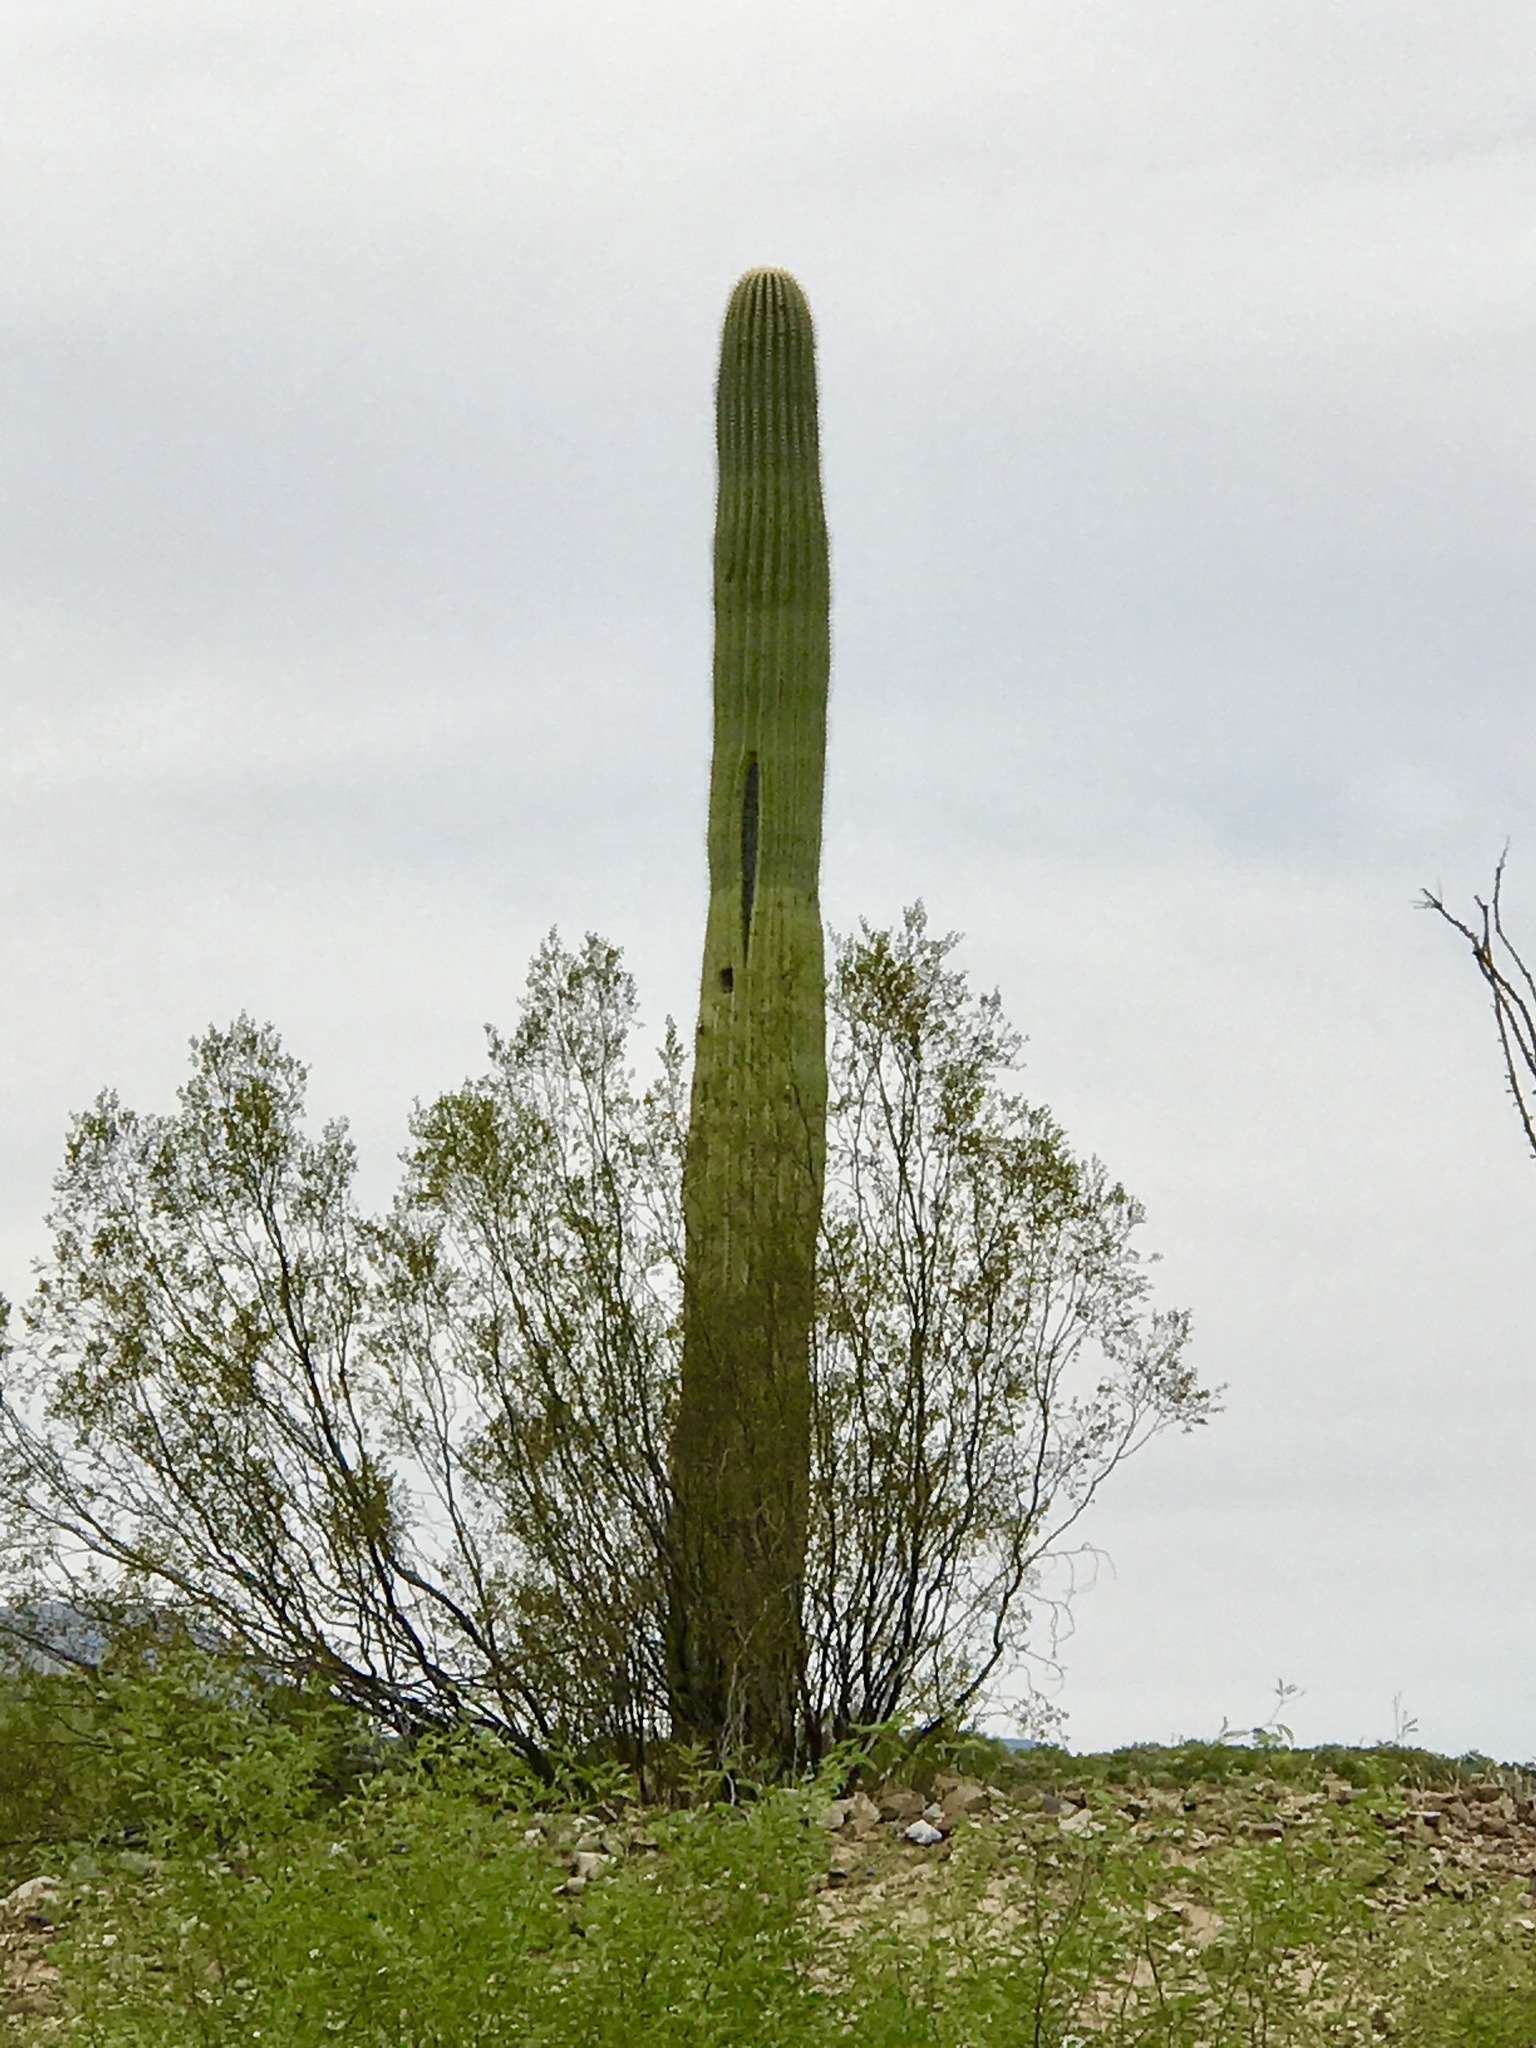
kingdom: Plantae
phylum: Tracheophyta
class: Magnoliopsida
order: Caryophyllales
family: Cactaceae
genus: Carnegiea
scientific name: Carnegiea gigantea
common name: Saguaro
